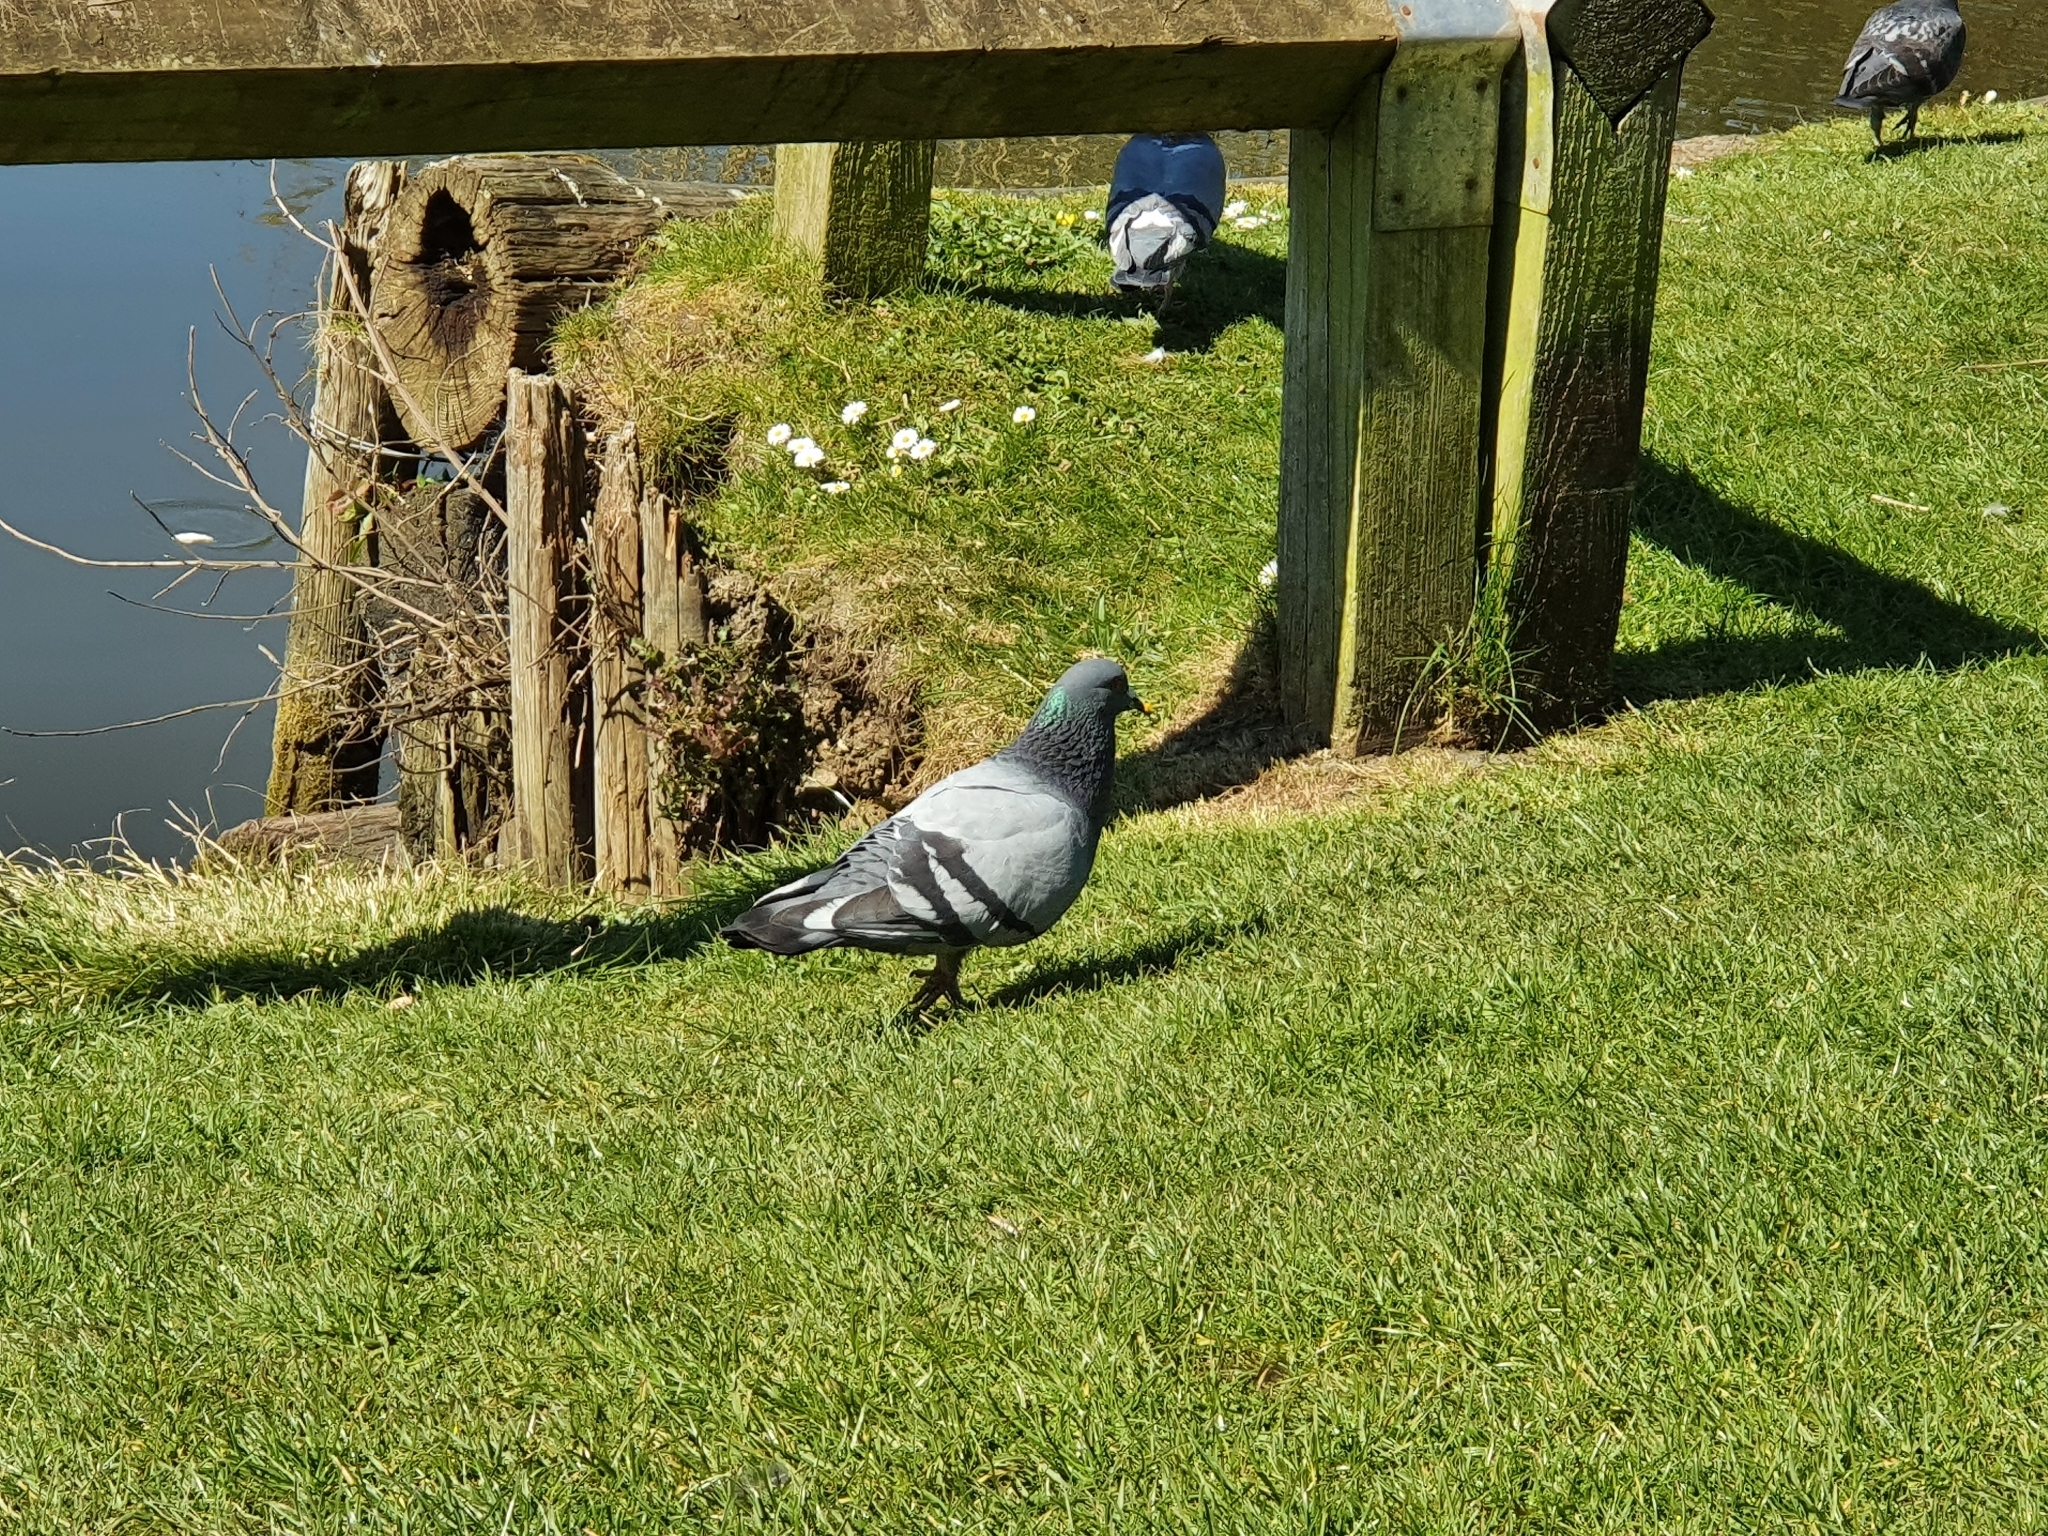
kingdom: Animalia
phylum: Chordata
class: Aves
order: Columbiformes
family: Columbidae
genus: Columba
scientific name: Columba livia
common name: Rock pigeon
